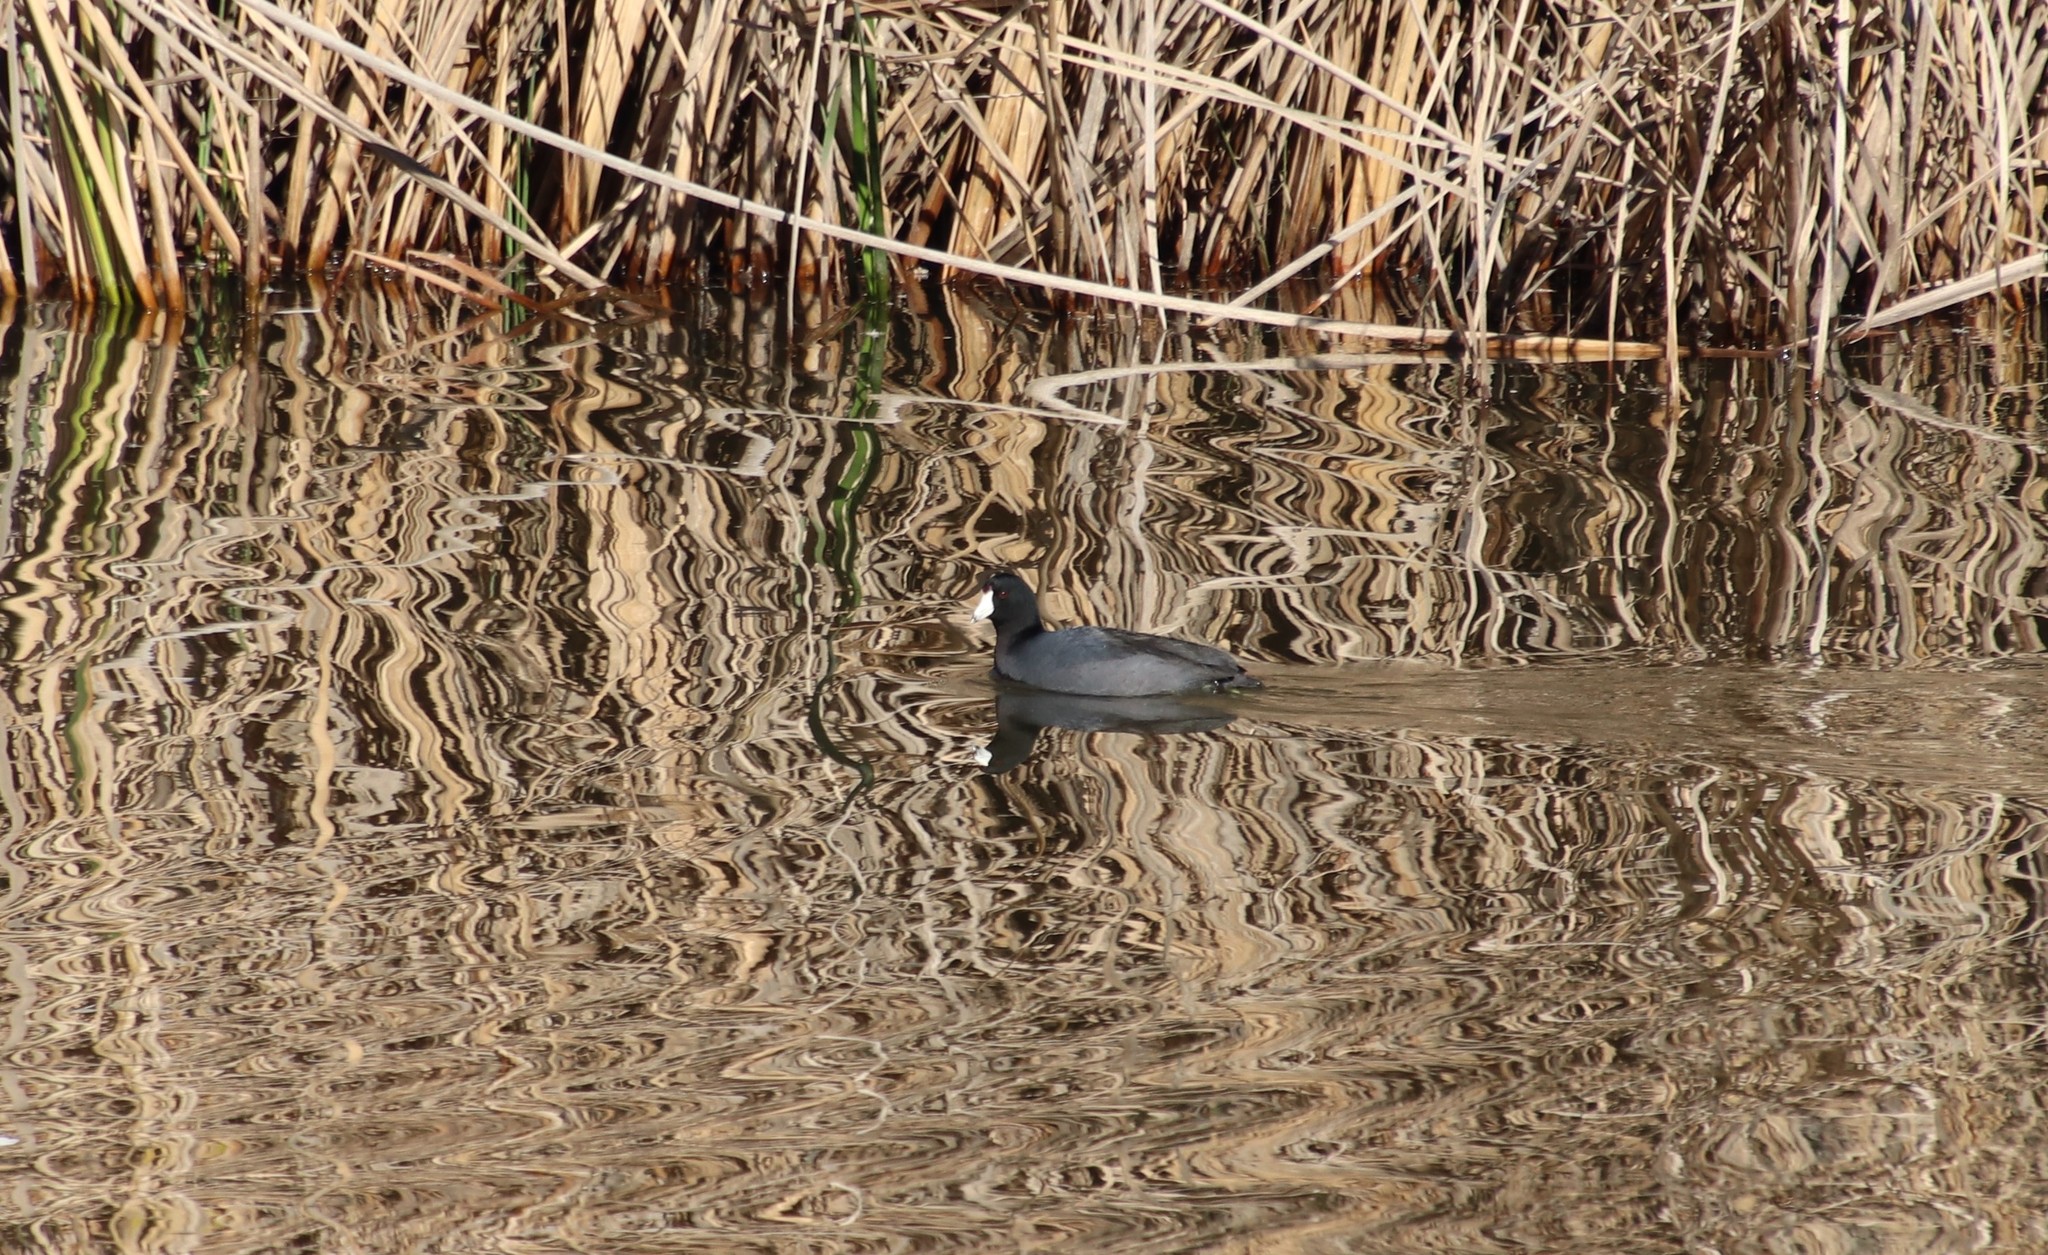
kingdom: Animalia
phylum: Chordata
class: Aves
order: Gruiformes
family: Rallidae
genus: Fulica
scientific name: Fulica americana
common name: American coot
